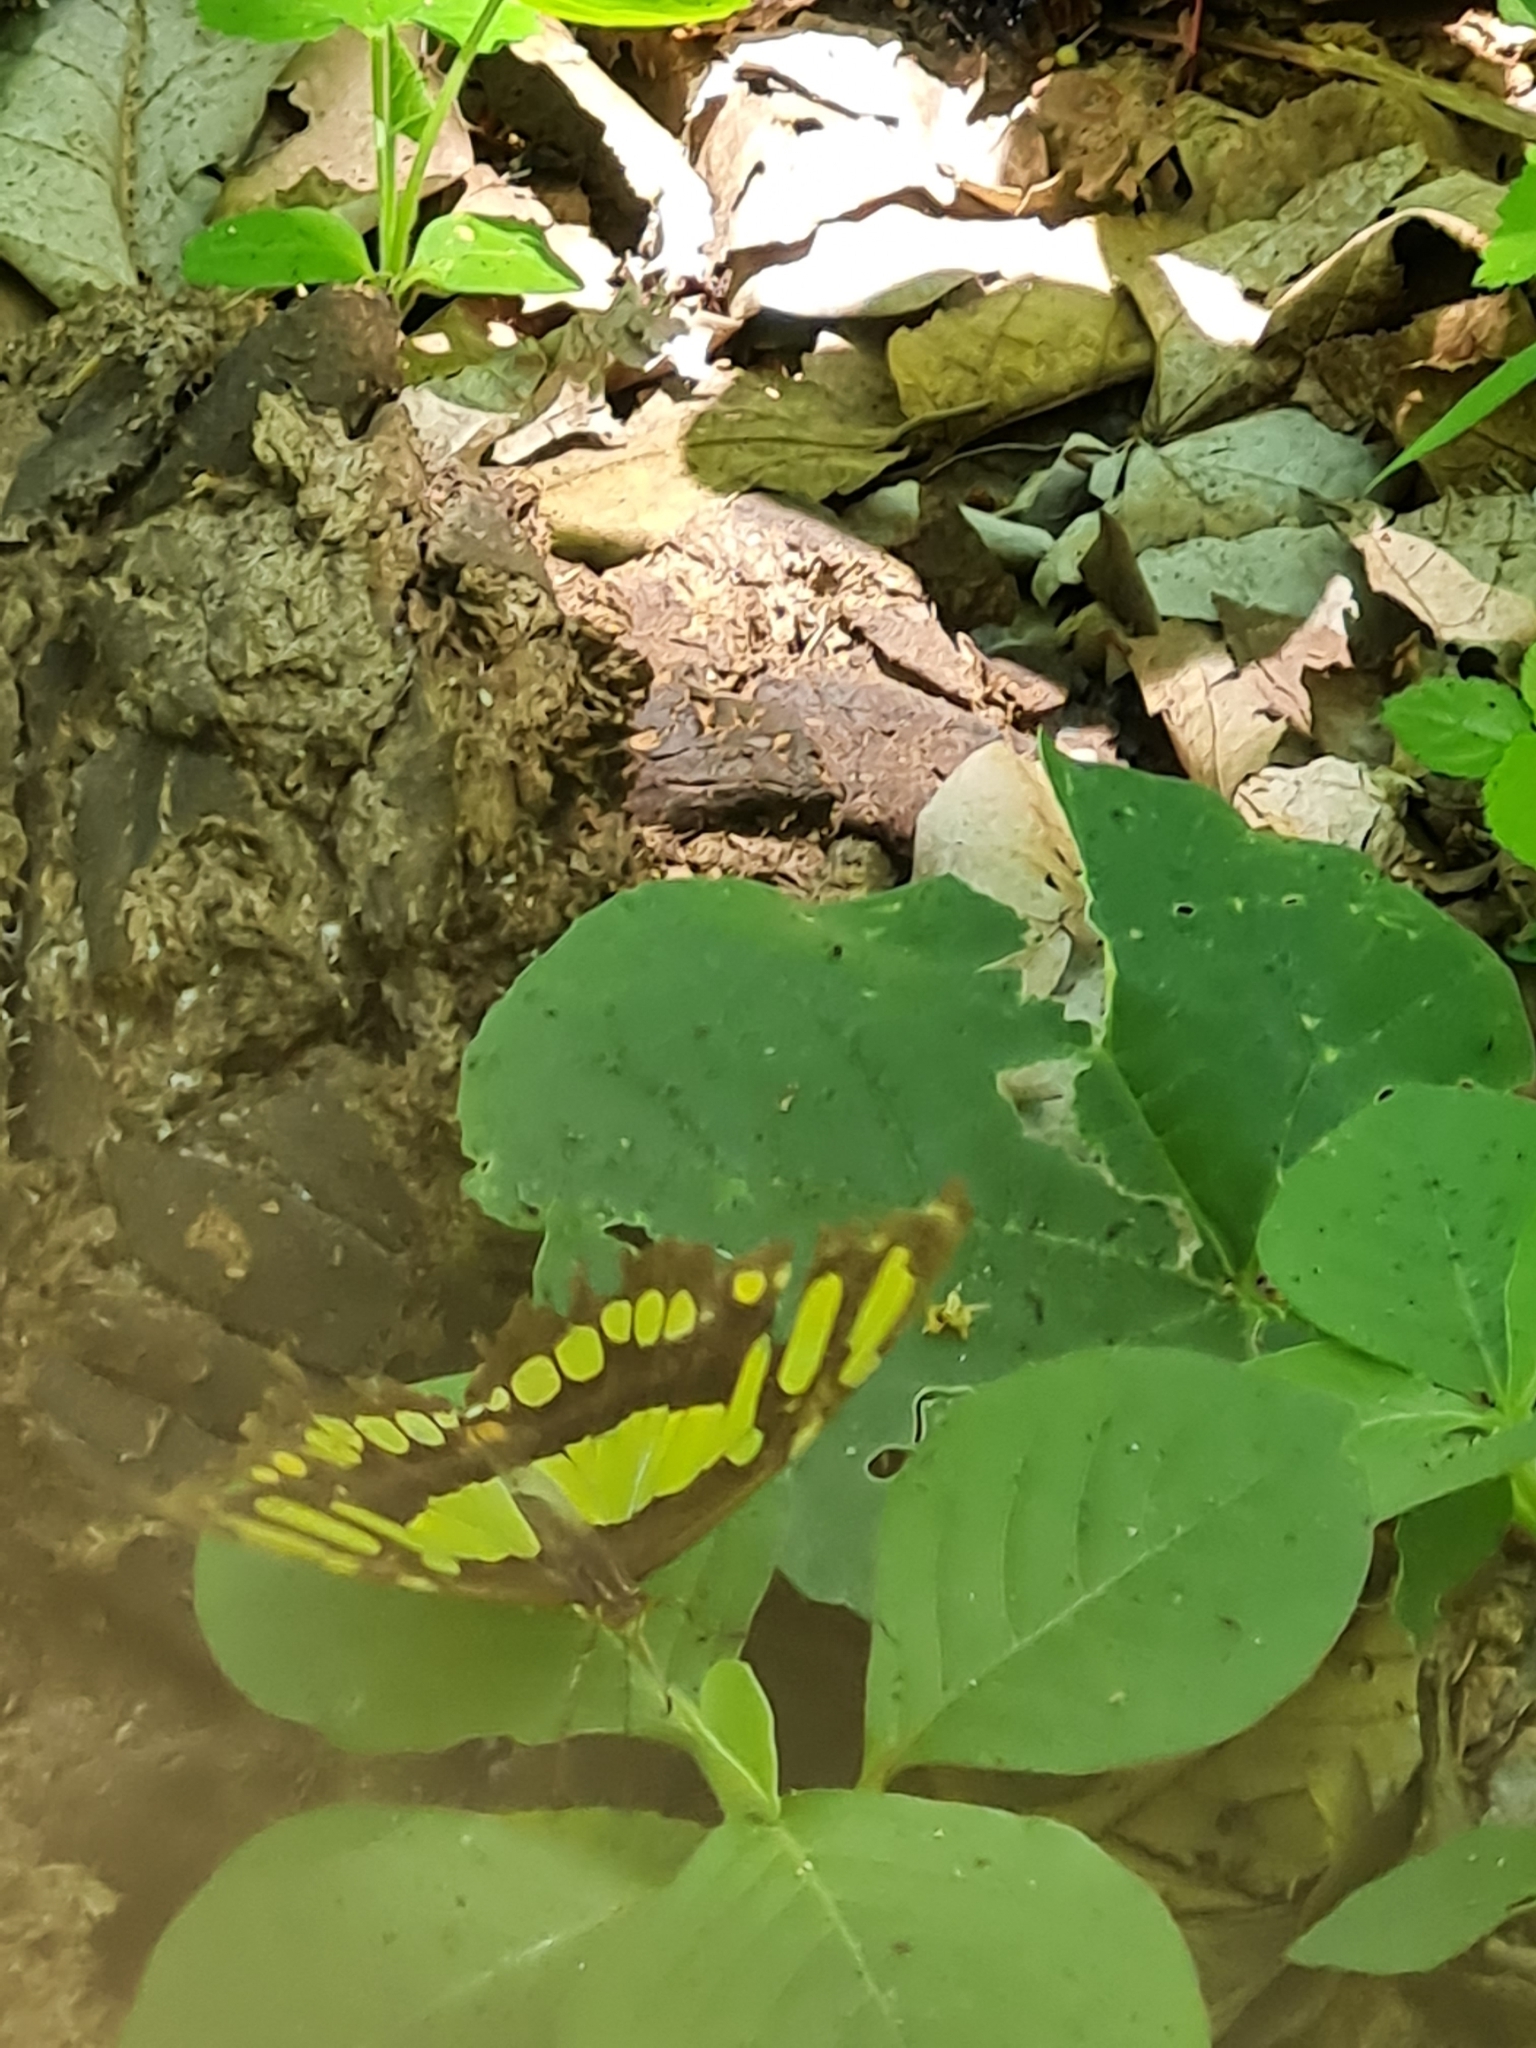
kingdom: Animalia
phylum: Arthropoda
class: Insecta
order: Lepidoptera
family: Nymphalidae
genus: Siproeta
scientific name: Siproeta stelenes
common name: Malachite
